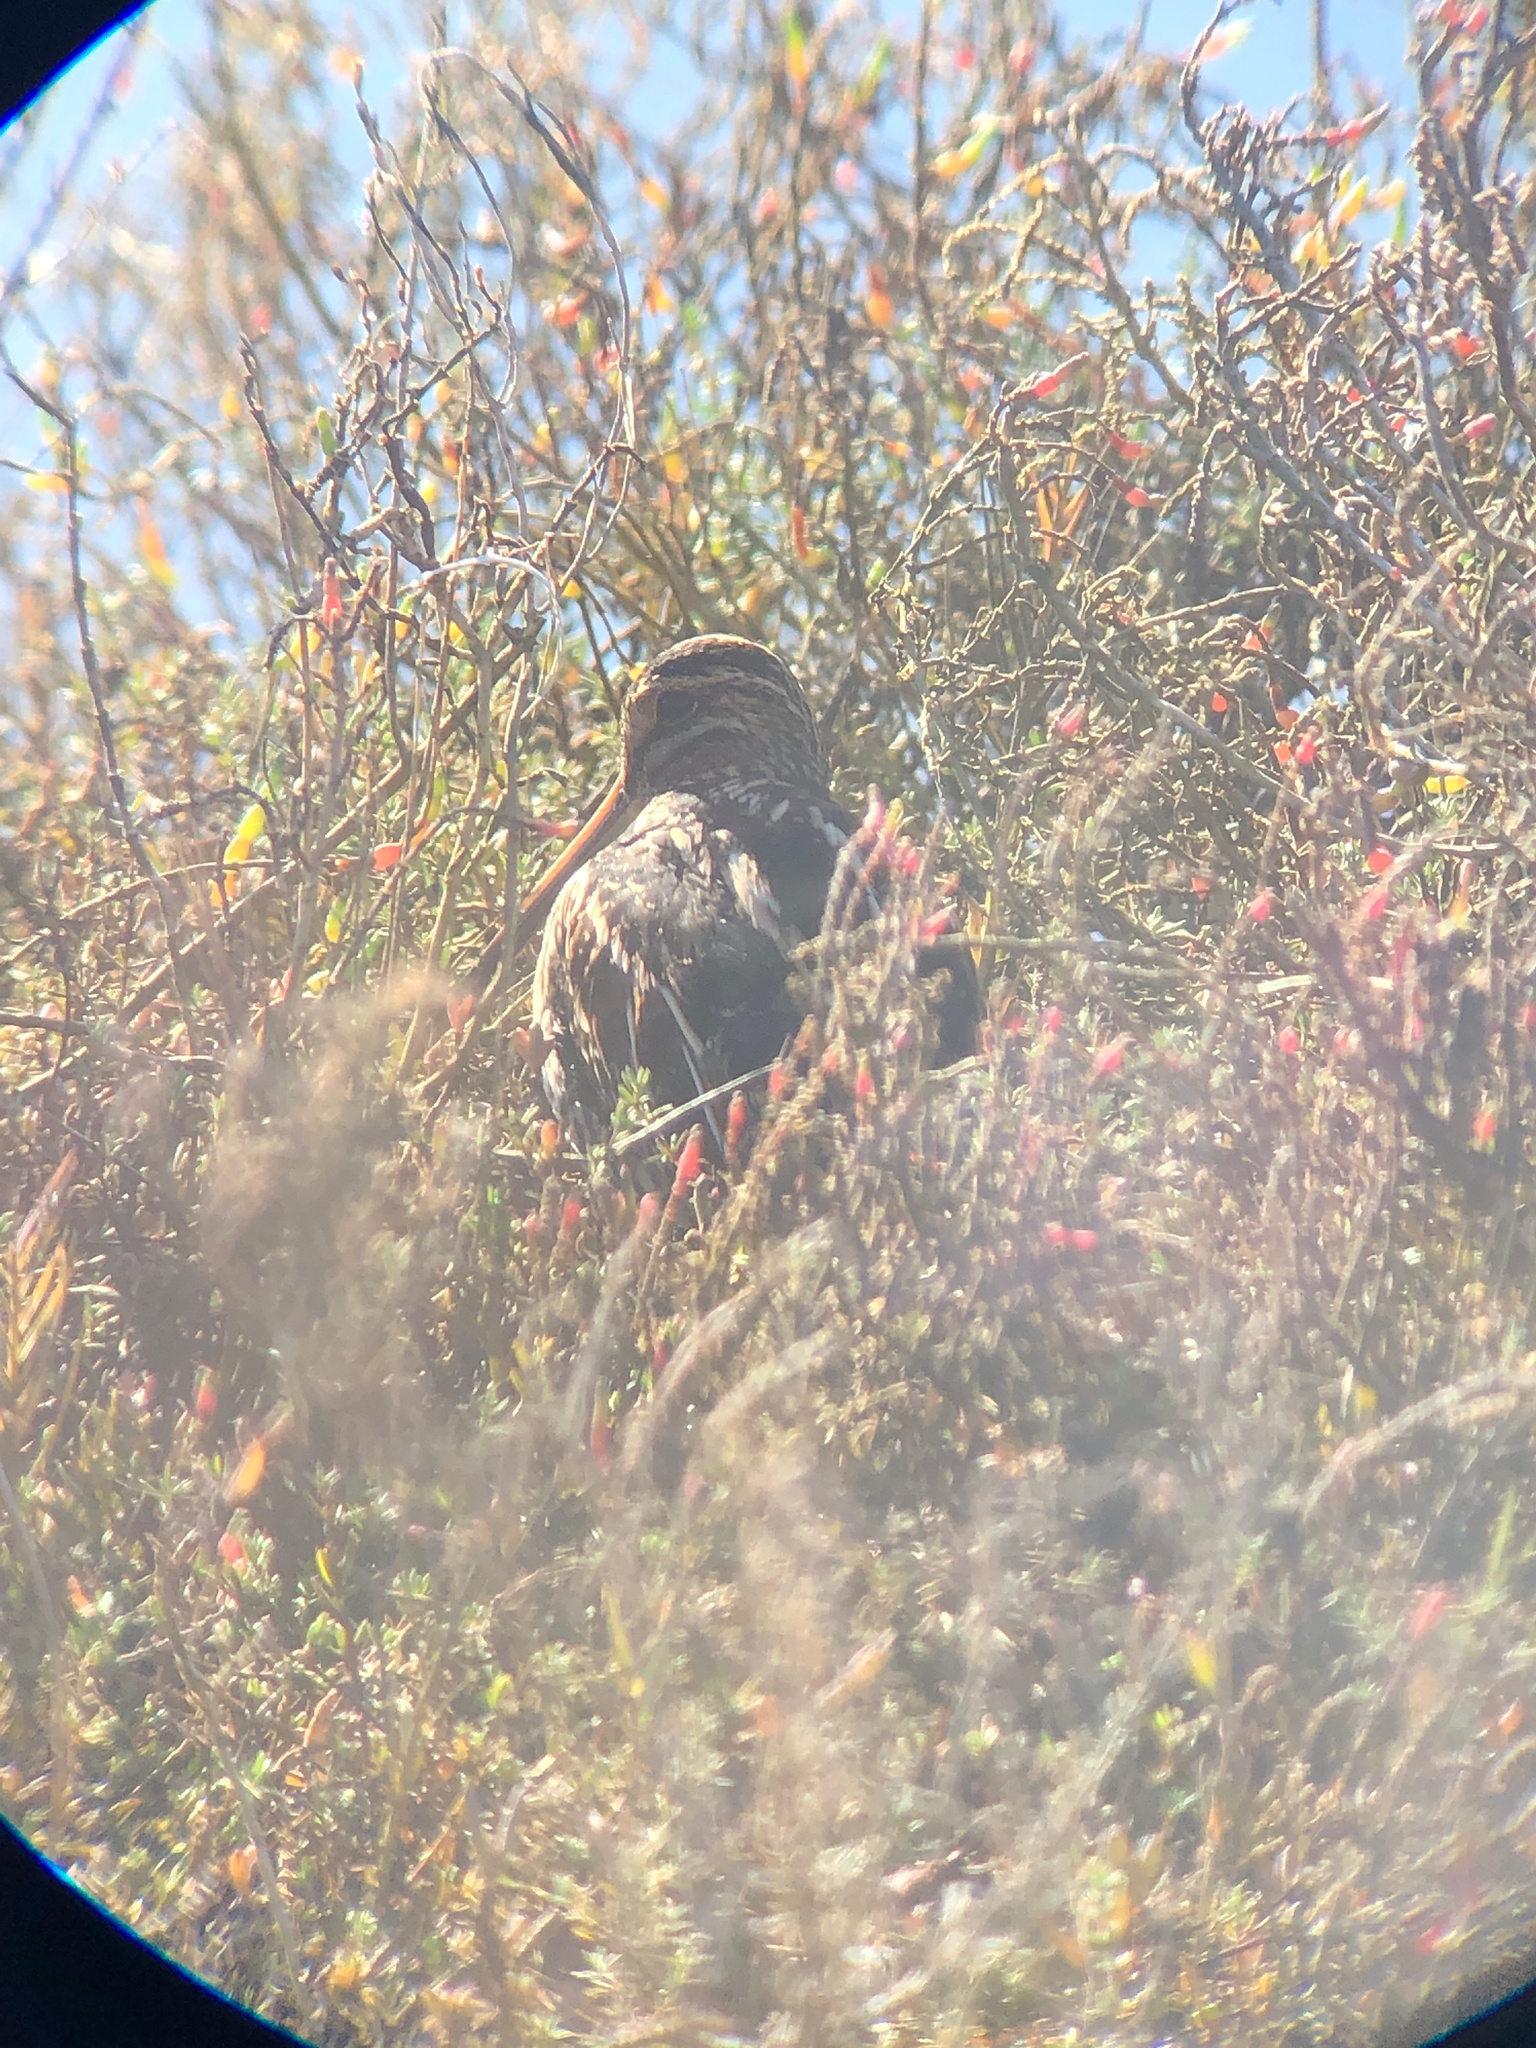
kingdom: Animalia
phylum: Chordata
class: Aves
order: Charadriiformes
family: Scolopacidae
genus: Gallinago
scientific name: Gallinago delicata
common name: Wilson's snipe
